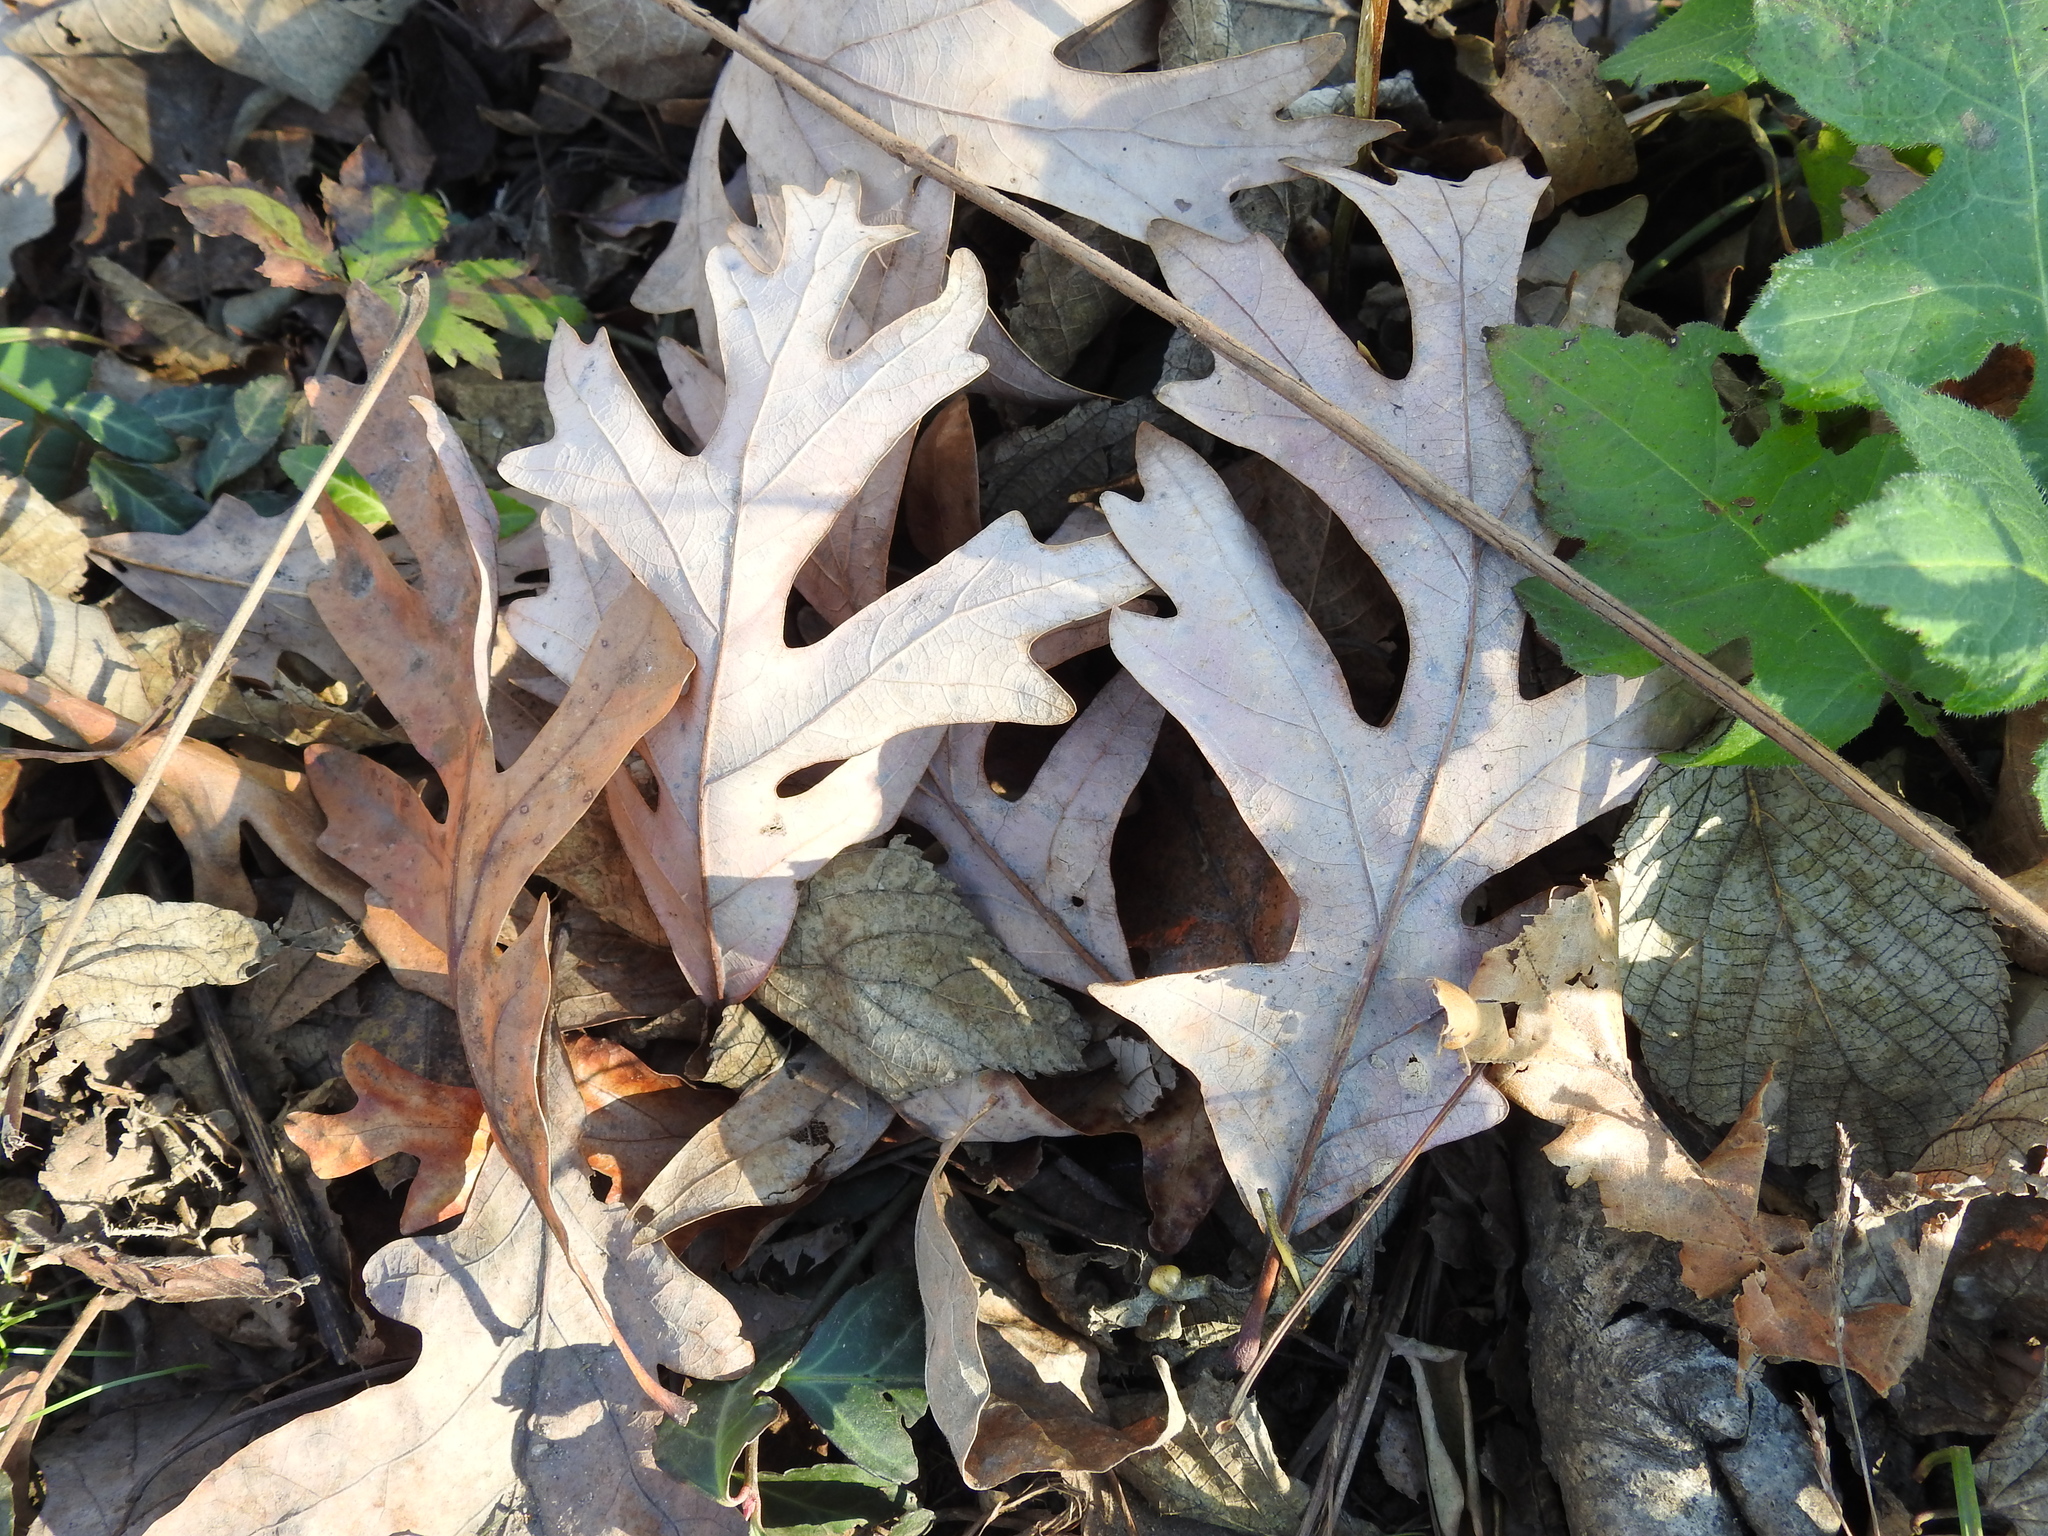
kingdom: Plantae
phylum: Tracheophyta
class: Magnoliopsida
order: Fagales
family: Fagaceae
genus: Quercus
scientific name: Quercus alba
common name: White oak
